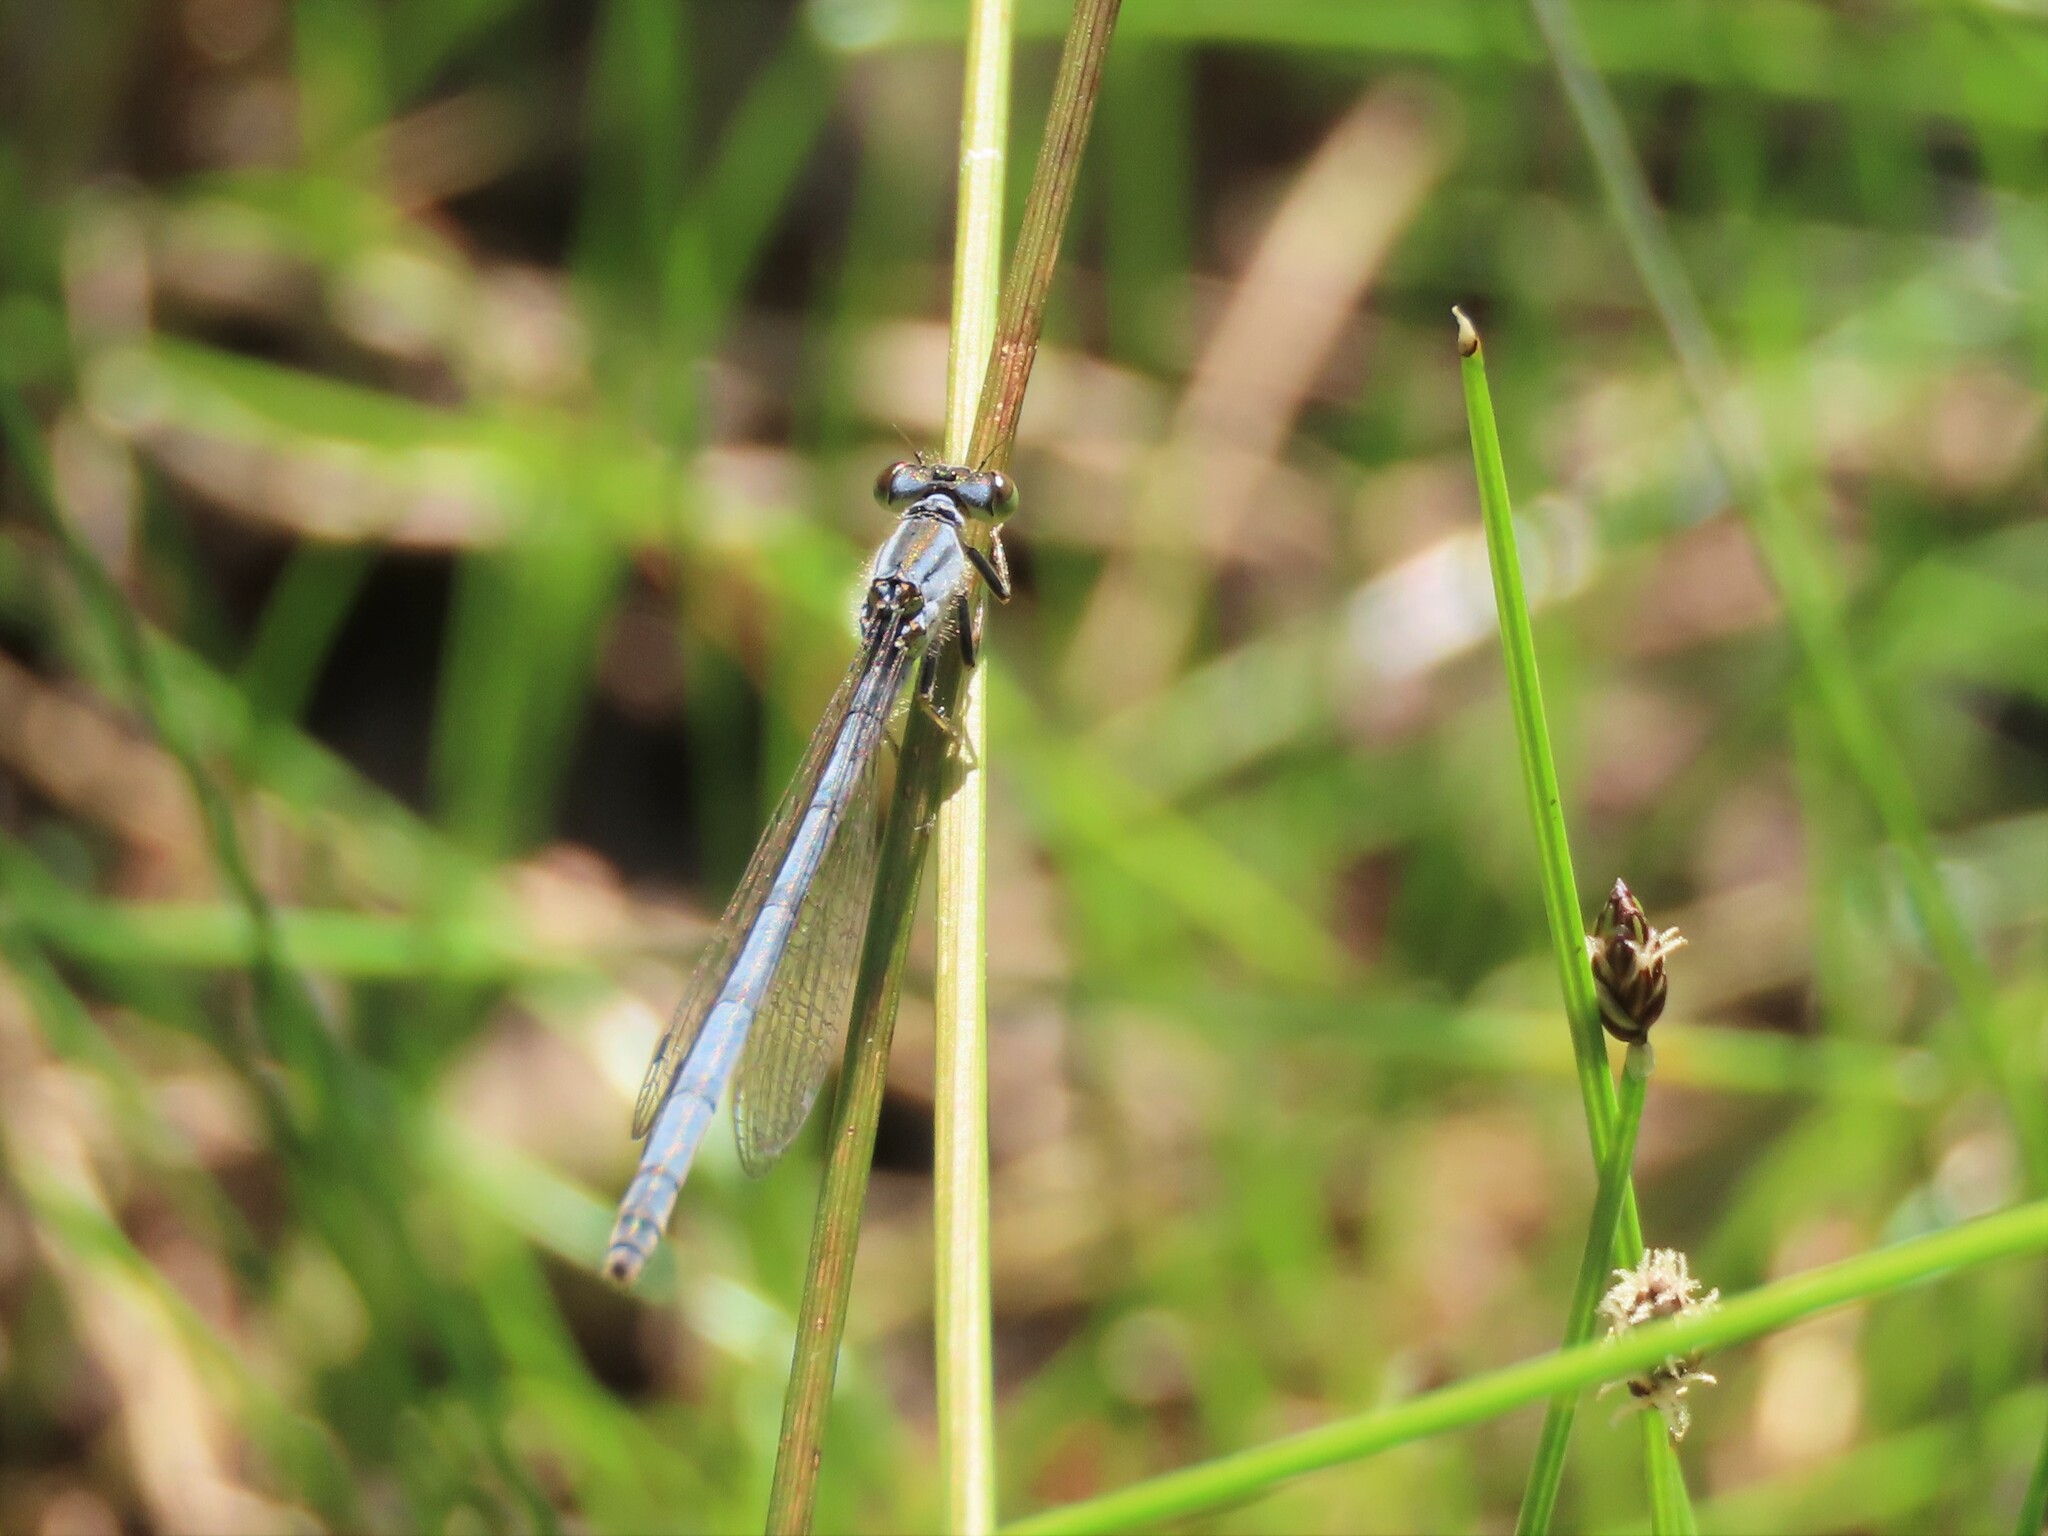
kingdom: Animalia
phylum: Arthropoda
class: Insecta
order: Odonata
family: Coenagrionidae
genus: Ischnura
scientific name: Ischnura verticalis
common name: Eastern forktail
